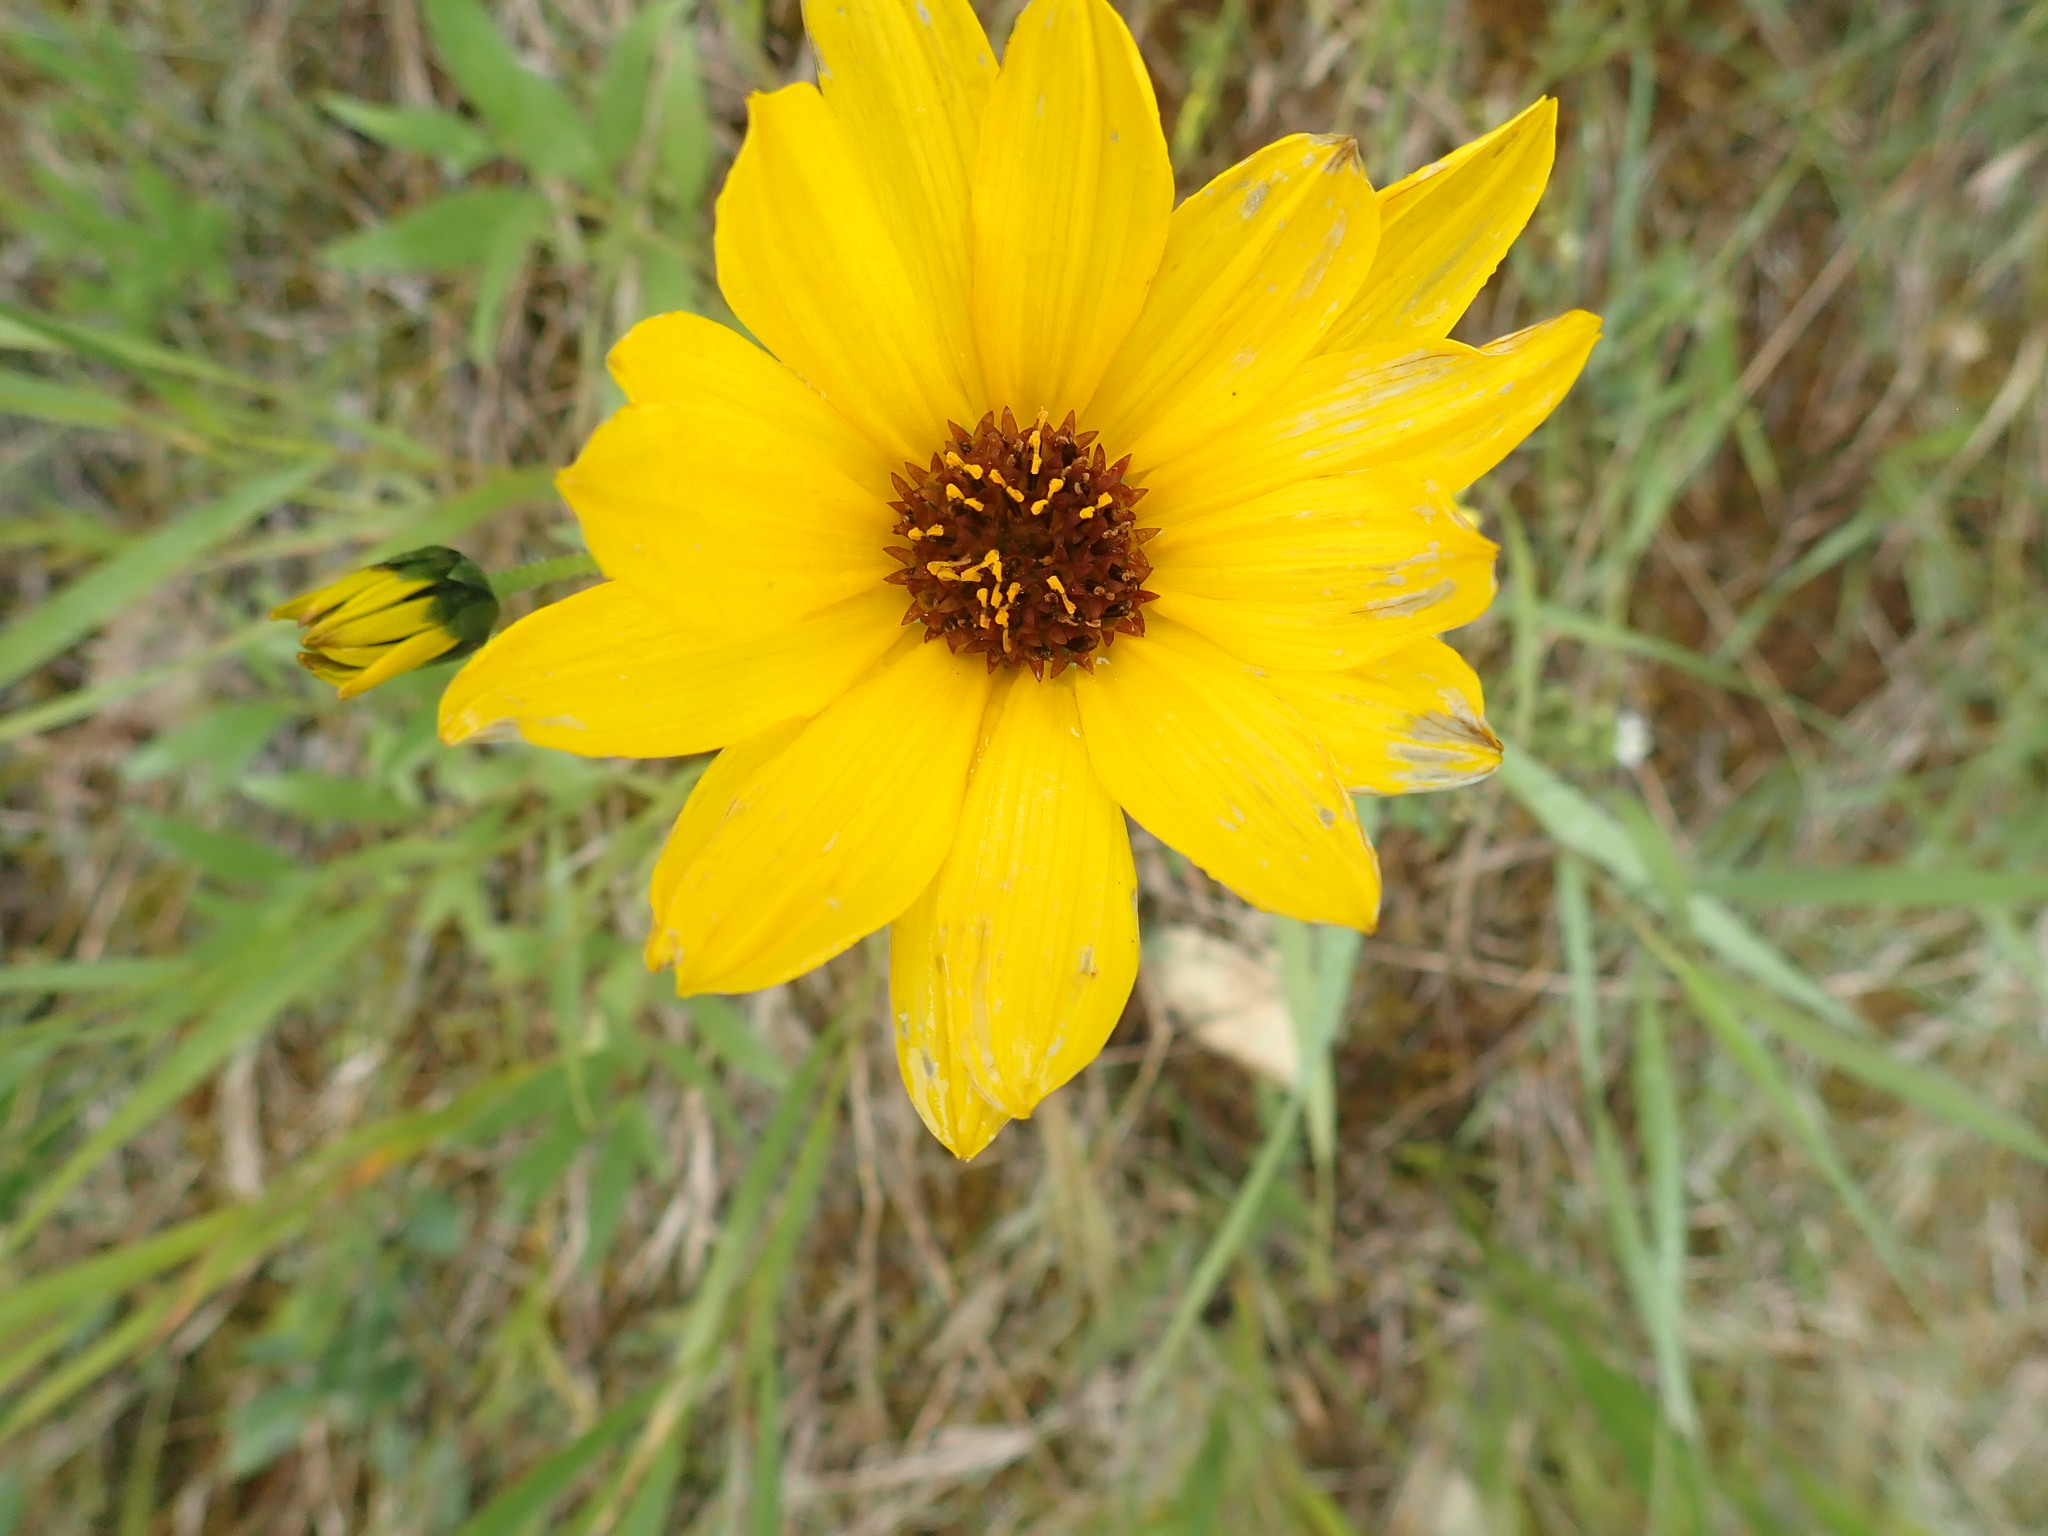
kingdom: Plantae
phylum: Tracheophyta
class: Magnoliopsida
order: Asterales
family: Asteraceae
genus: Helianthus
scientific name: Helianthus nuttallii
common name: Nuttall's sunflower
